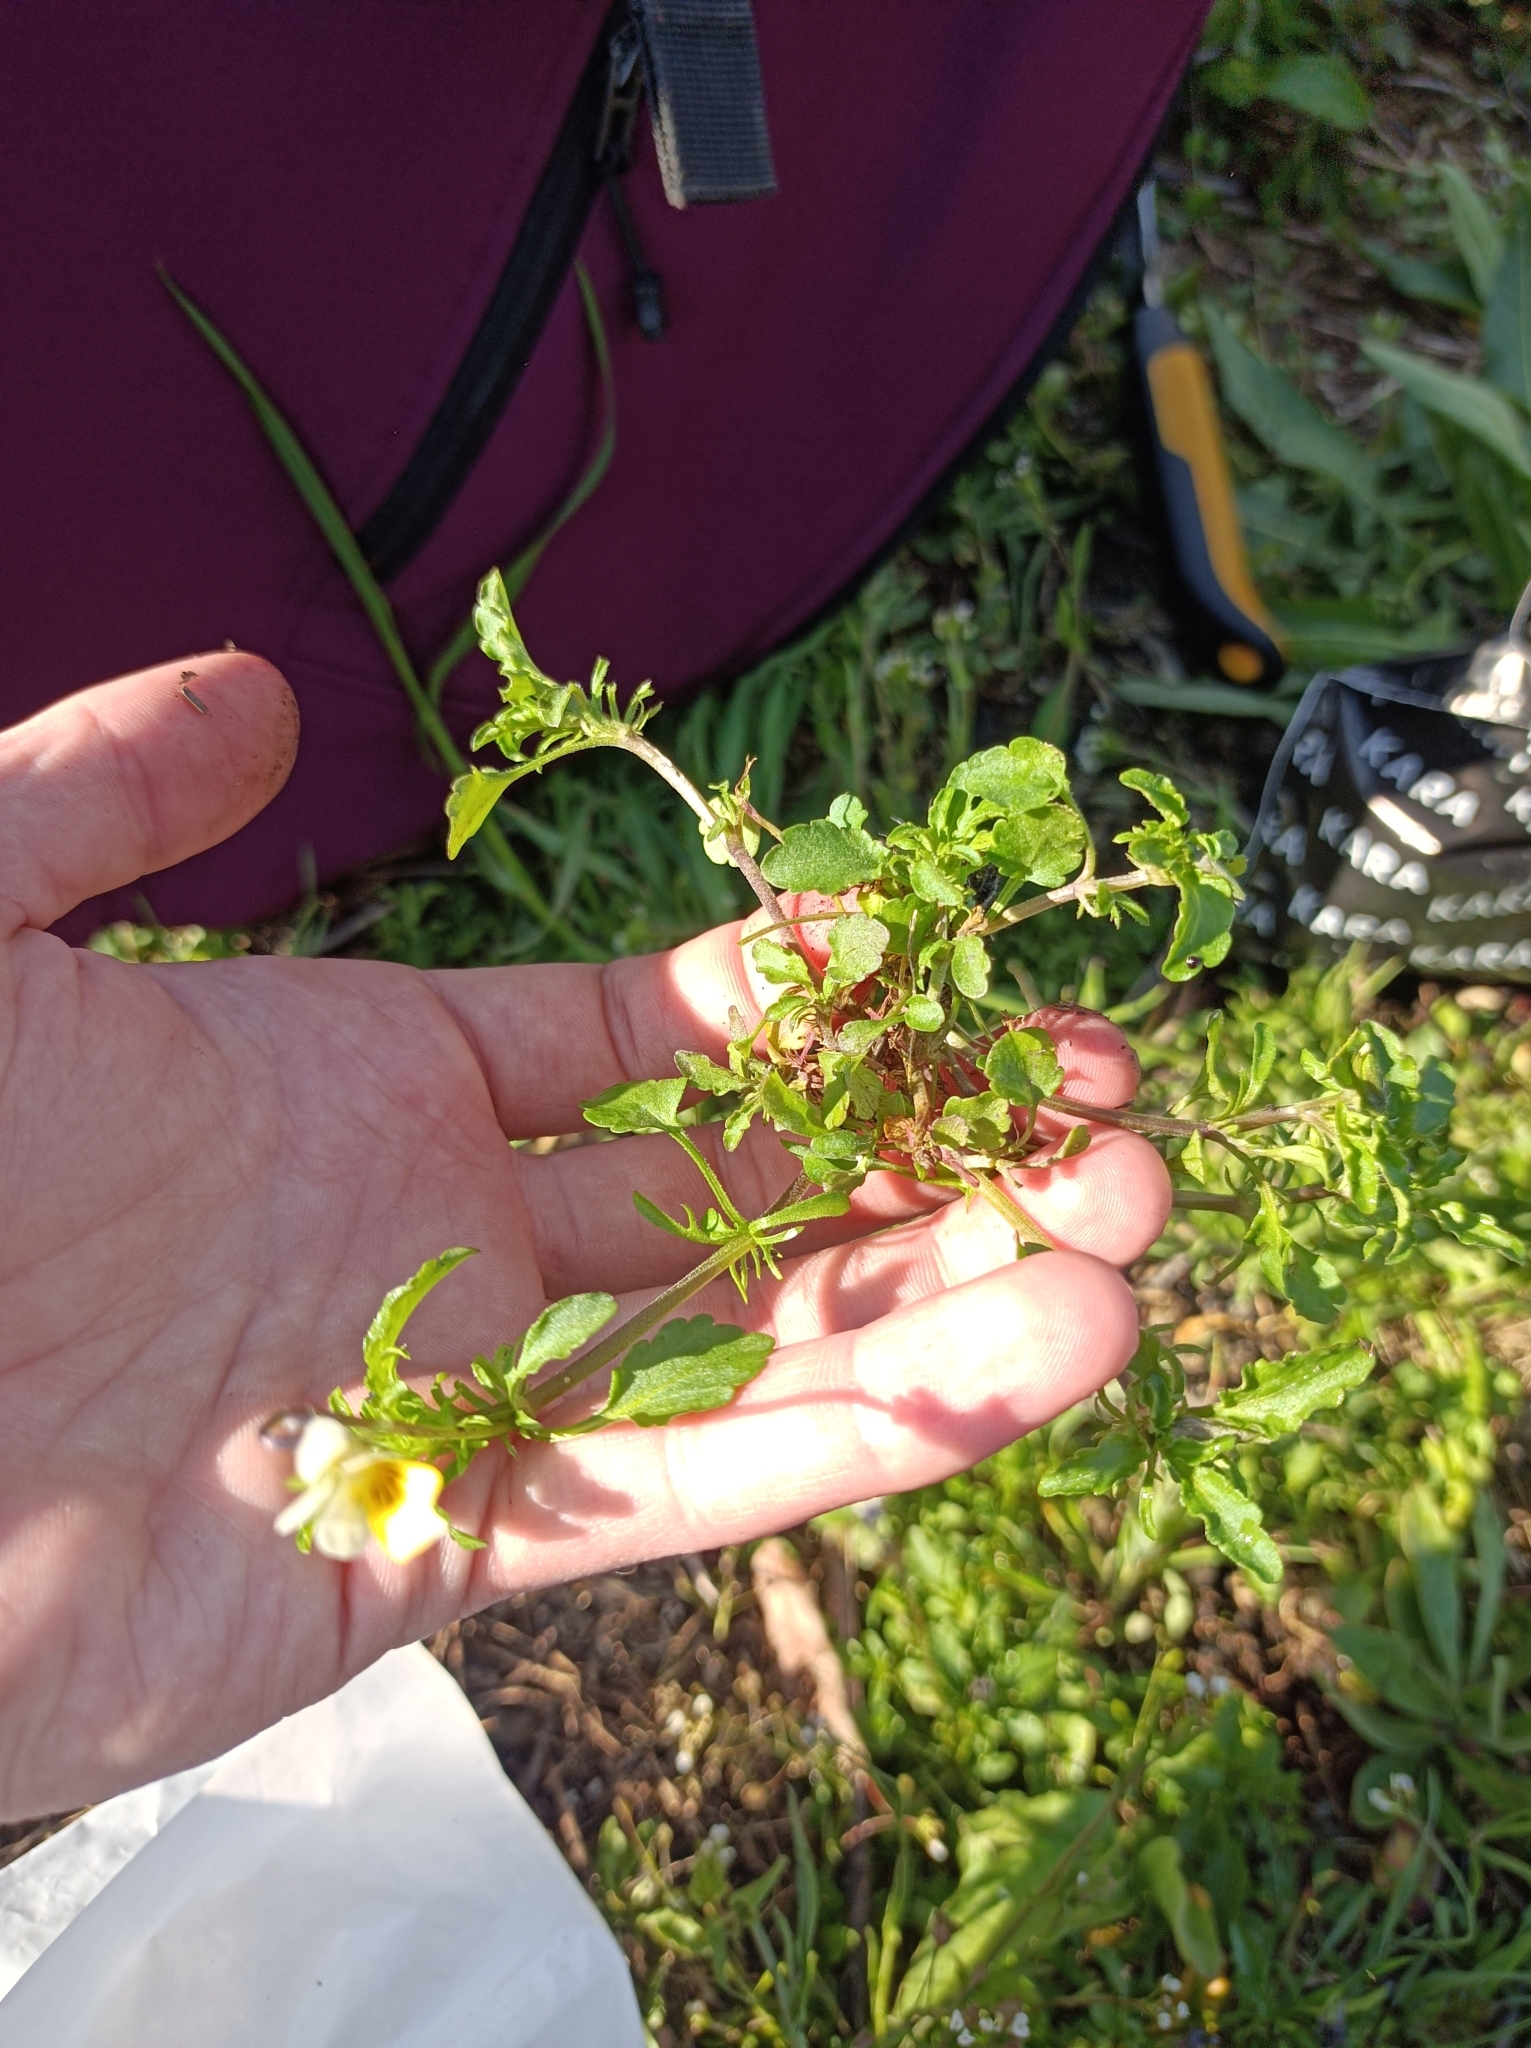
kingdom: Plantae
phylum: Tracheophyta
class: Magnoliopsida
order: Malpighiales
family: Violaceae
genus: Viola
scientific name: Viola arvensis
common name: Field pansy
